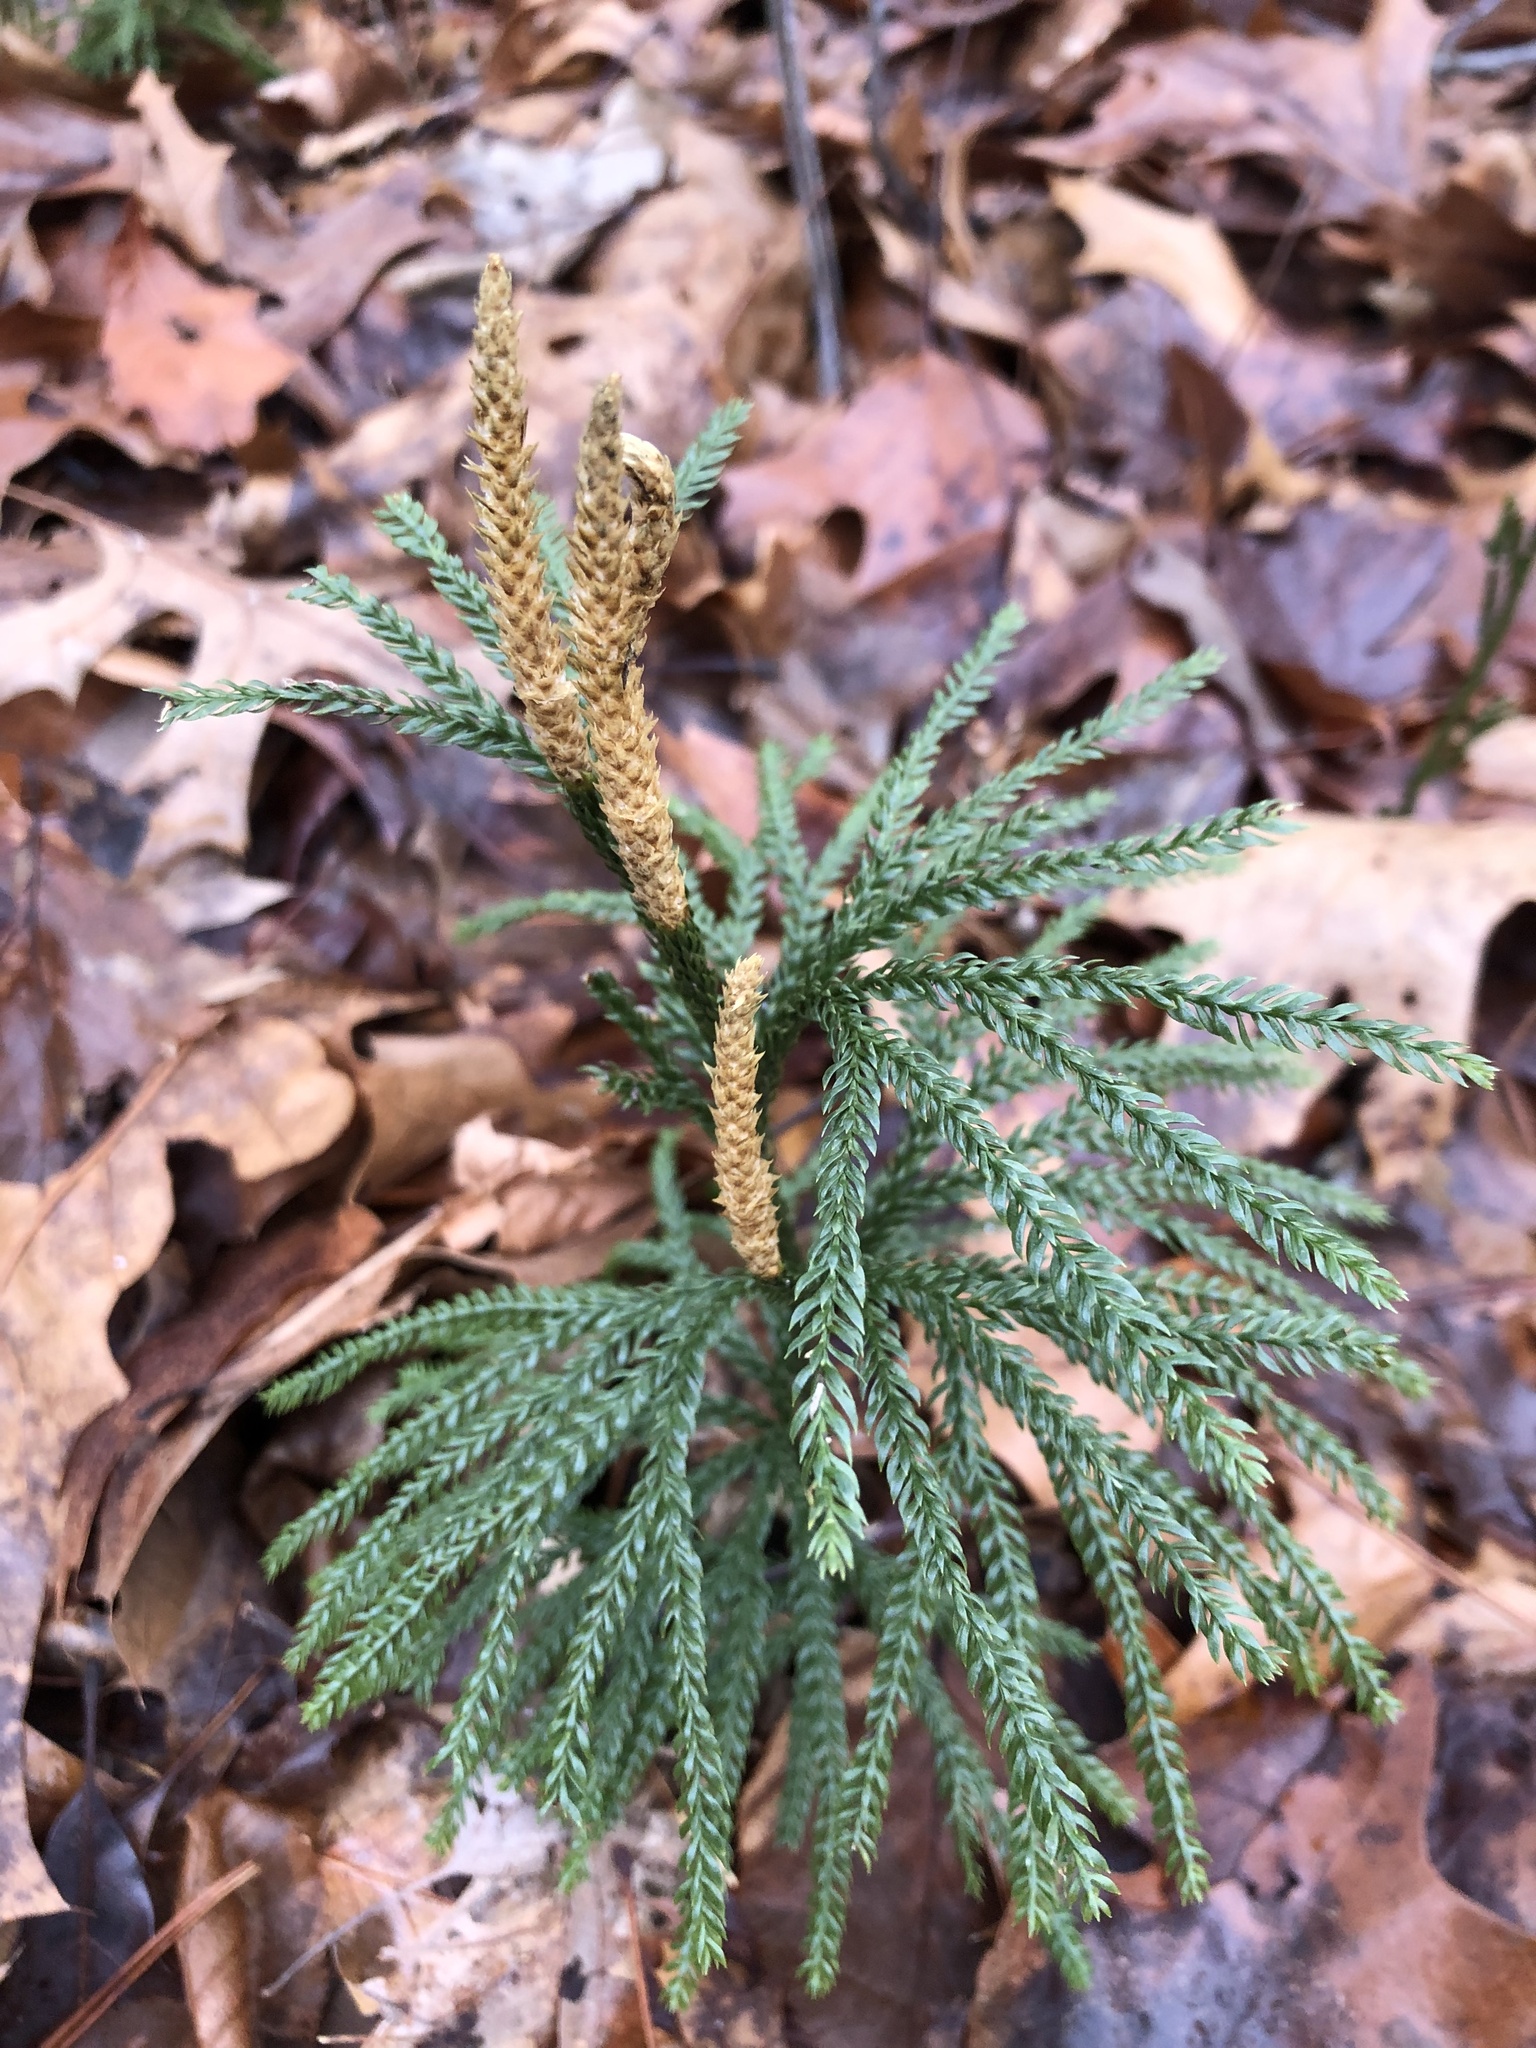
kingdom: Plantae
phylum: Tracheophyta
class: Lycopodiopsida
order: Lycopodiales
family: Lycopodiaceae
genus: Dendrolycopodium
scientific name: Dendrolycopodium obscurum
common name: Common ground-pine
